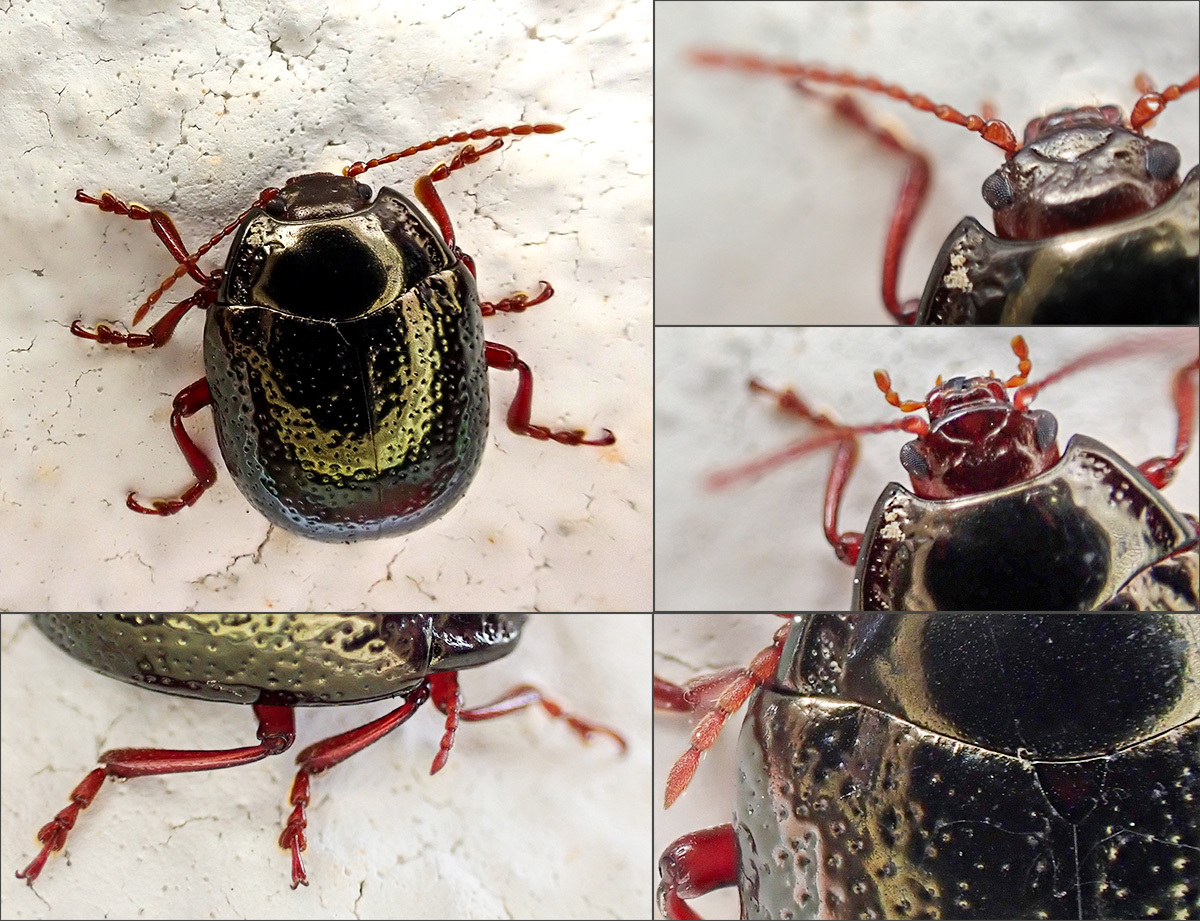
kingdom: Animalia
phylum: Arthropoda
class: Insecta
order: Coleoptera
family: Chrysomelidae
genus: Chrysolina
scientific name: Chrysolina bankii
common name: Leaf beetle
